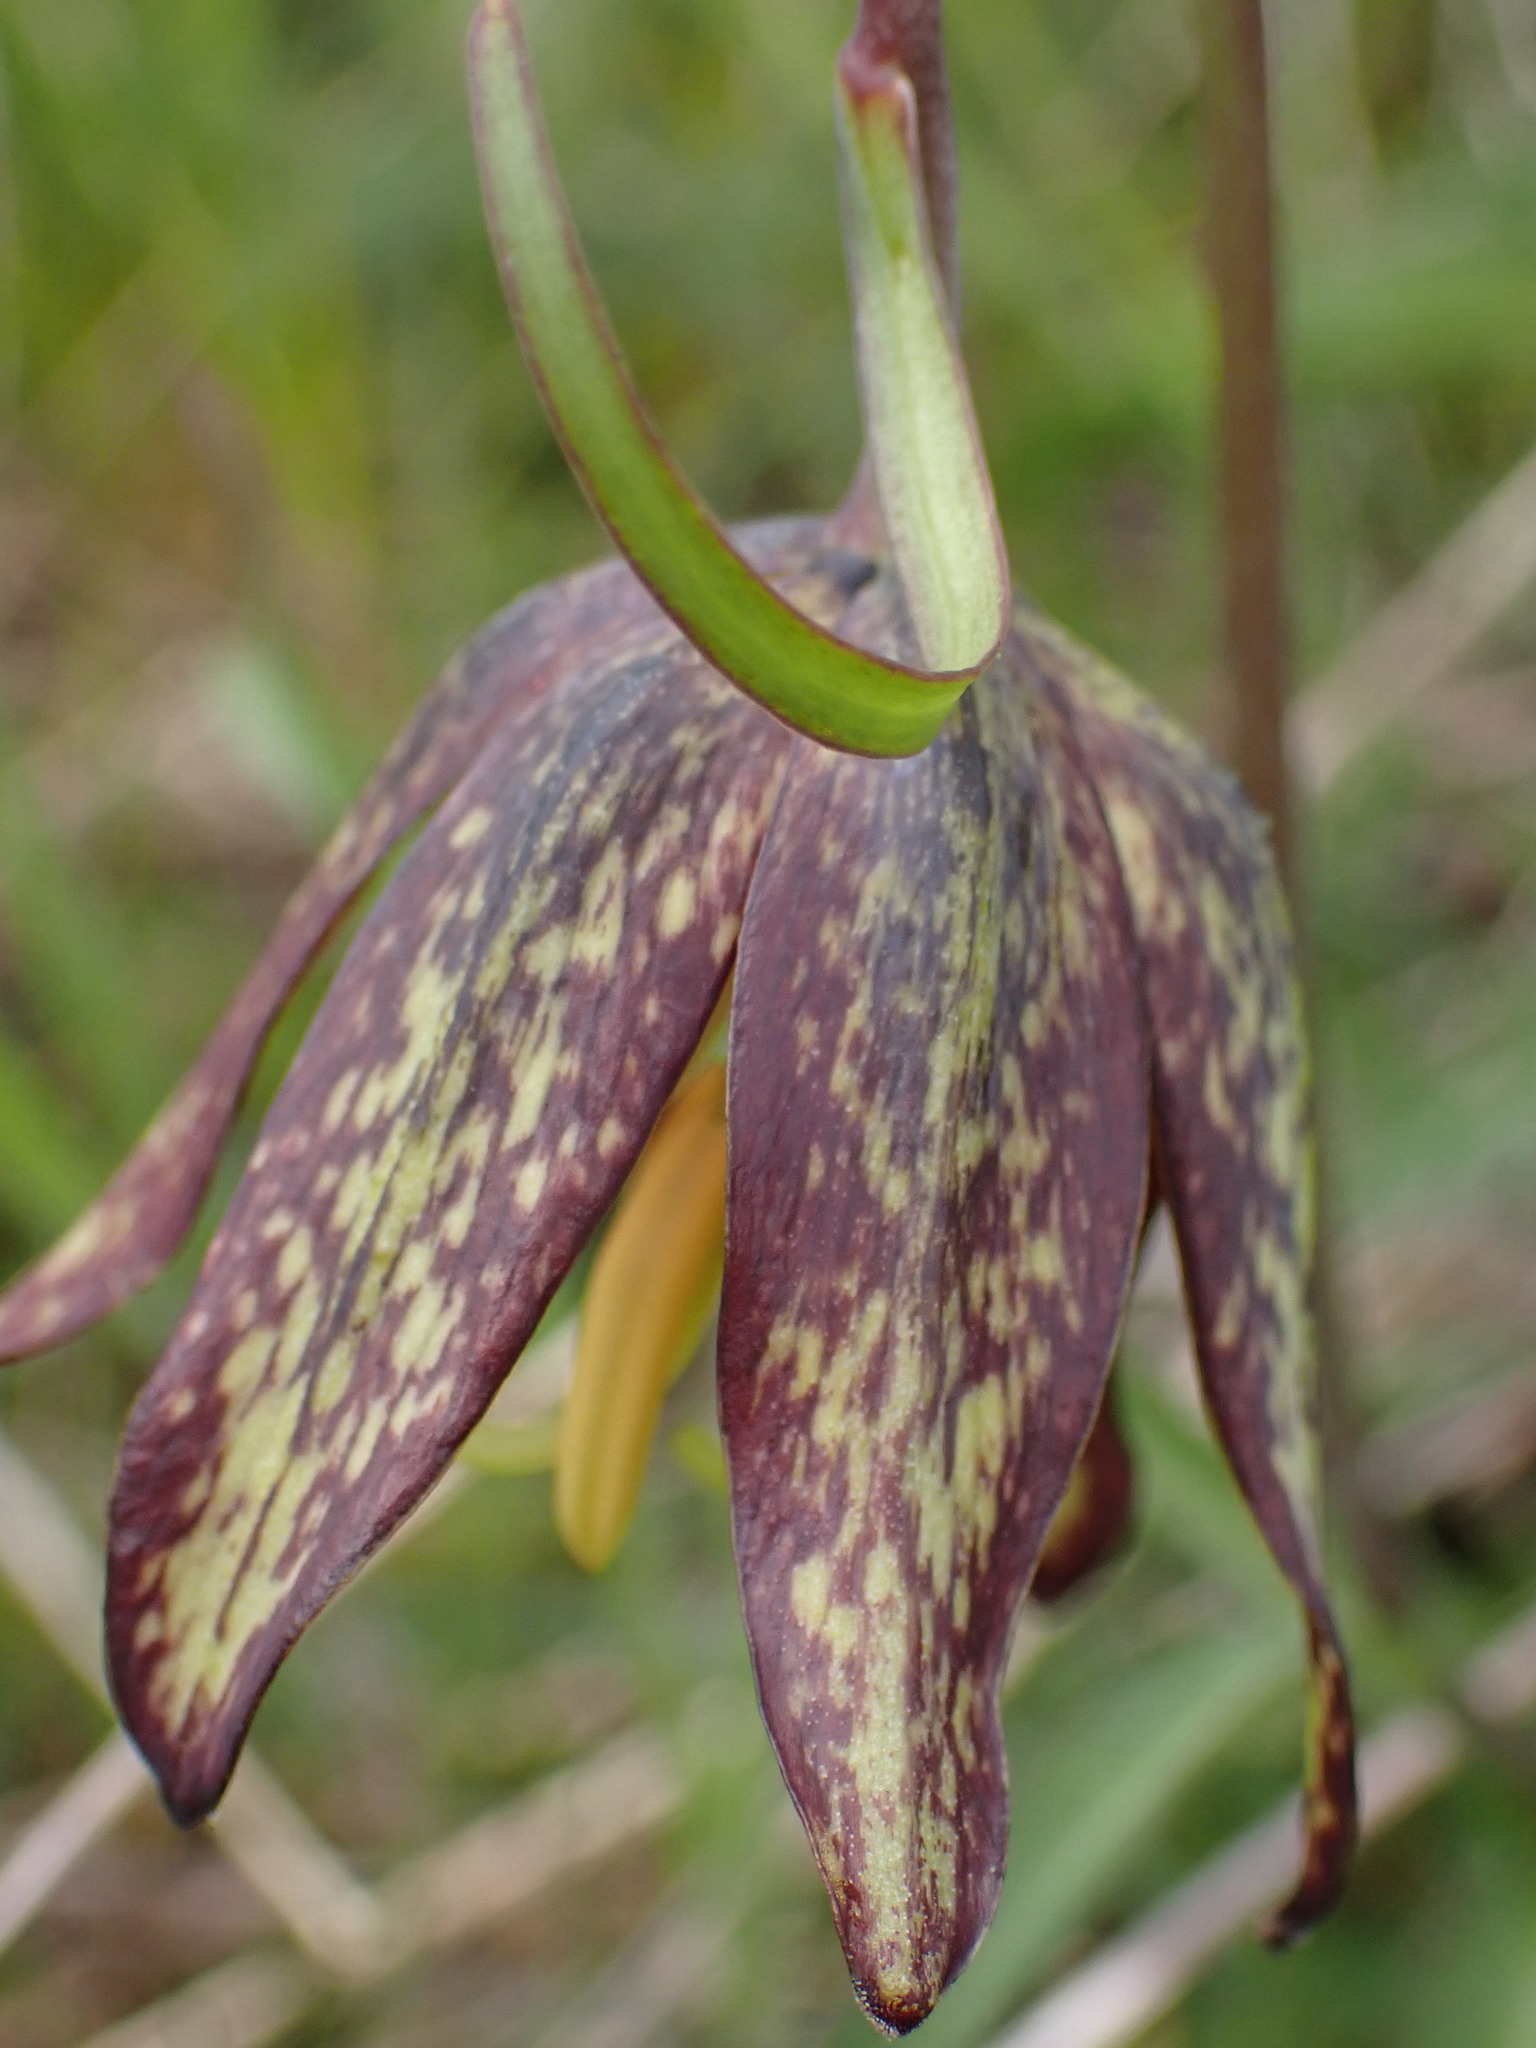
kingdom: Plantae
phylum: Tracheophyta
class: Liliopsida
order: Liliales
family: Liliaceae
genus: Fritillaria
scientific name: Fritillaria affinis
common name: Ojai fritillary
